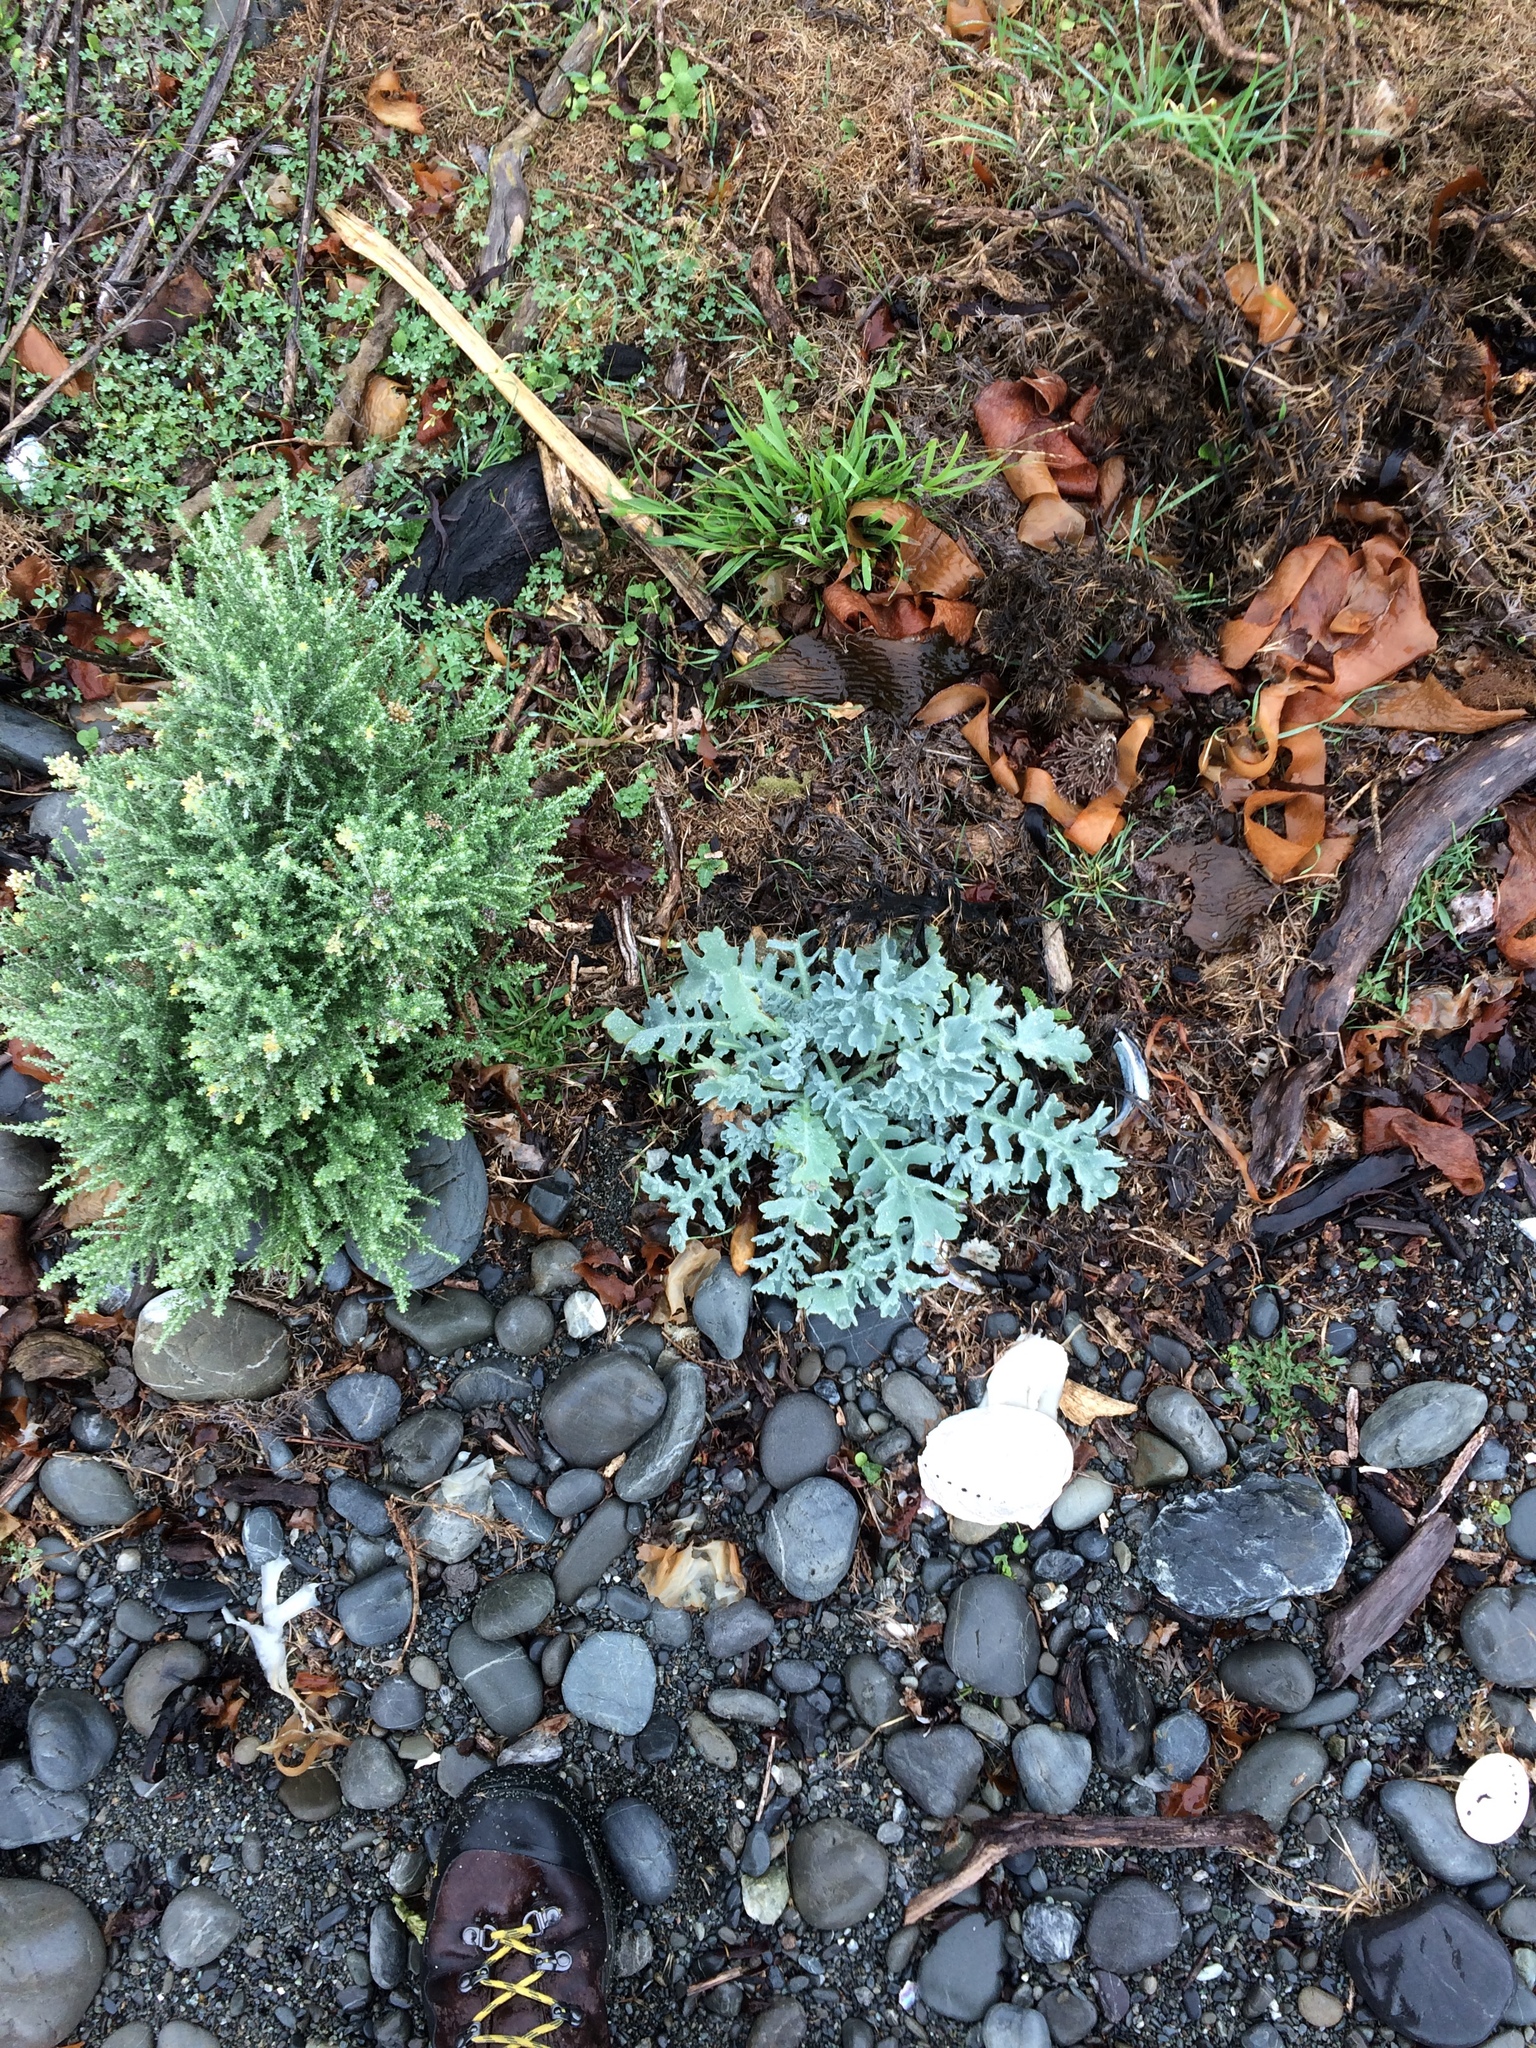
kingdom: Plantae
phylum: Tracheophyta
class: Magnoliopsida
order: Ranunculales
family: Papaveraceae
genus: Glaucium
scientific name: Glaucium flavum
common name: Yellow horned-poppy
